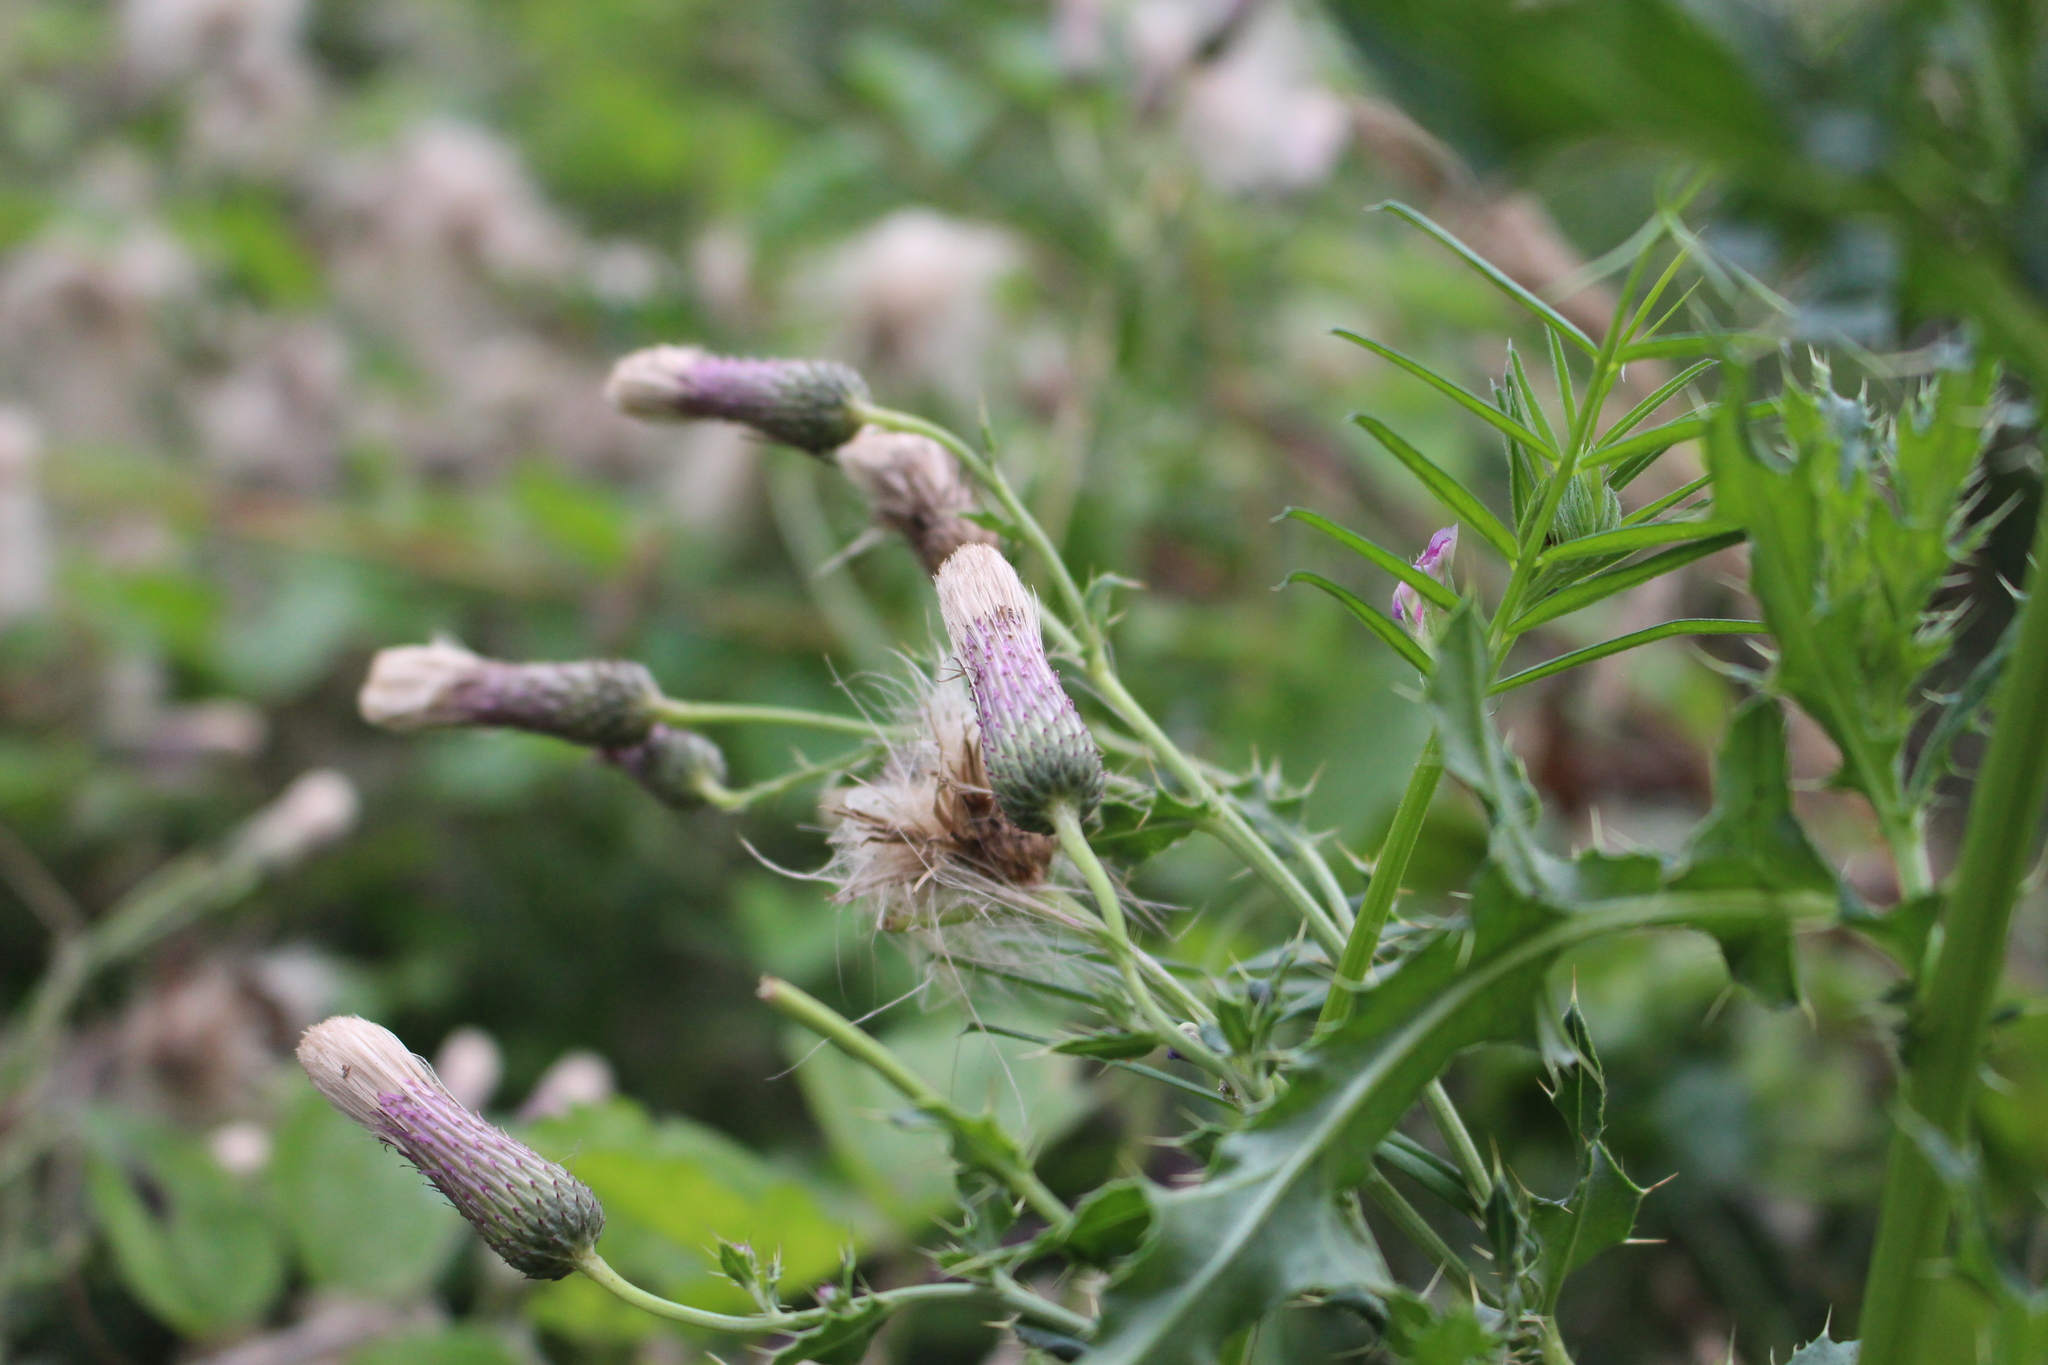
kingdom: Plantae
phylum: Tracheophyta
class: Magnoliopsida
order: Asterales
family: Asteraceae
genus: Cirsium
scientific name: Cirsium arvense
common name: Creeping thistle
